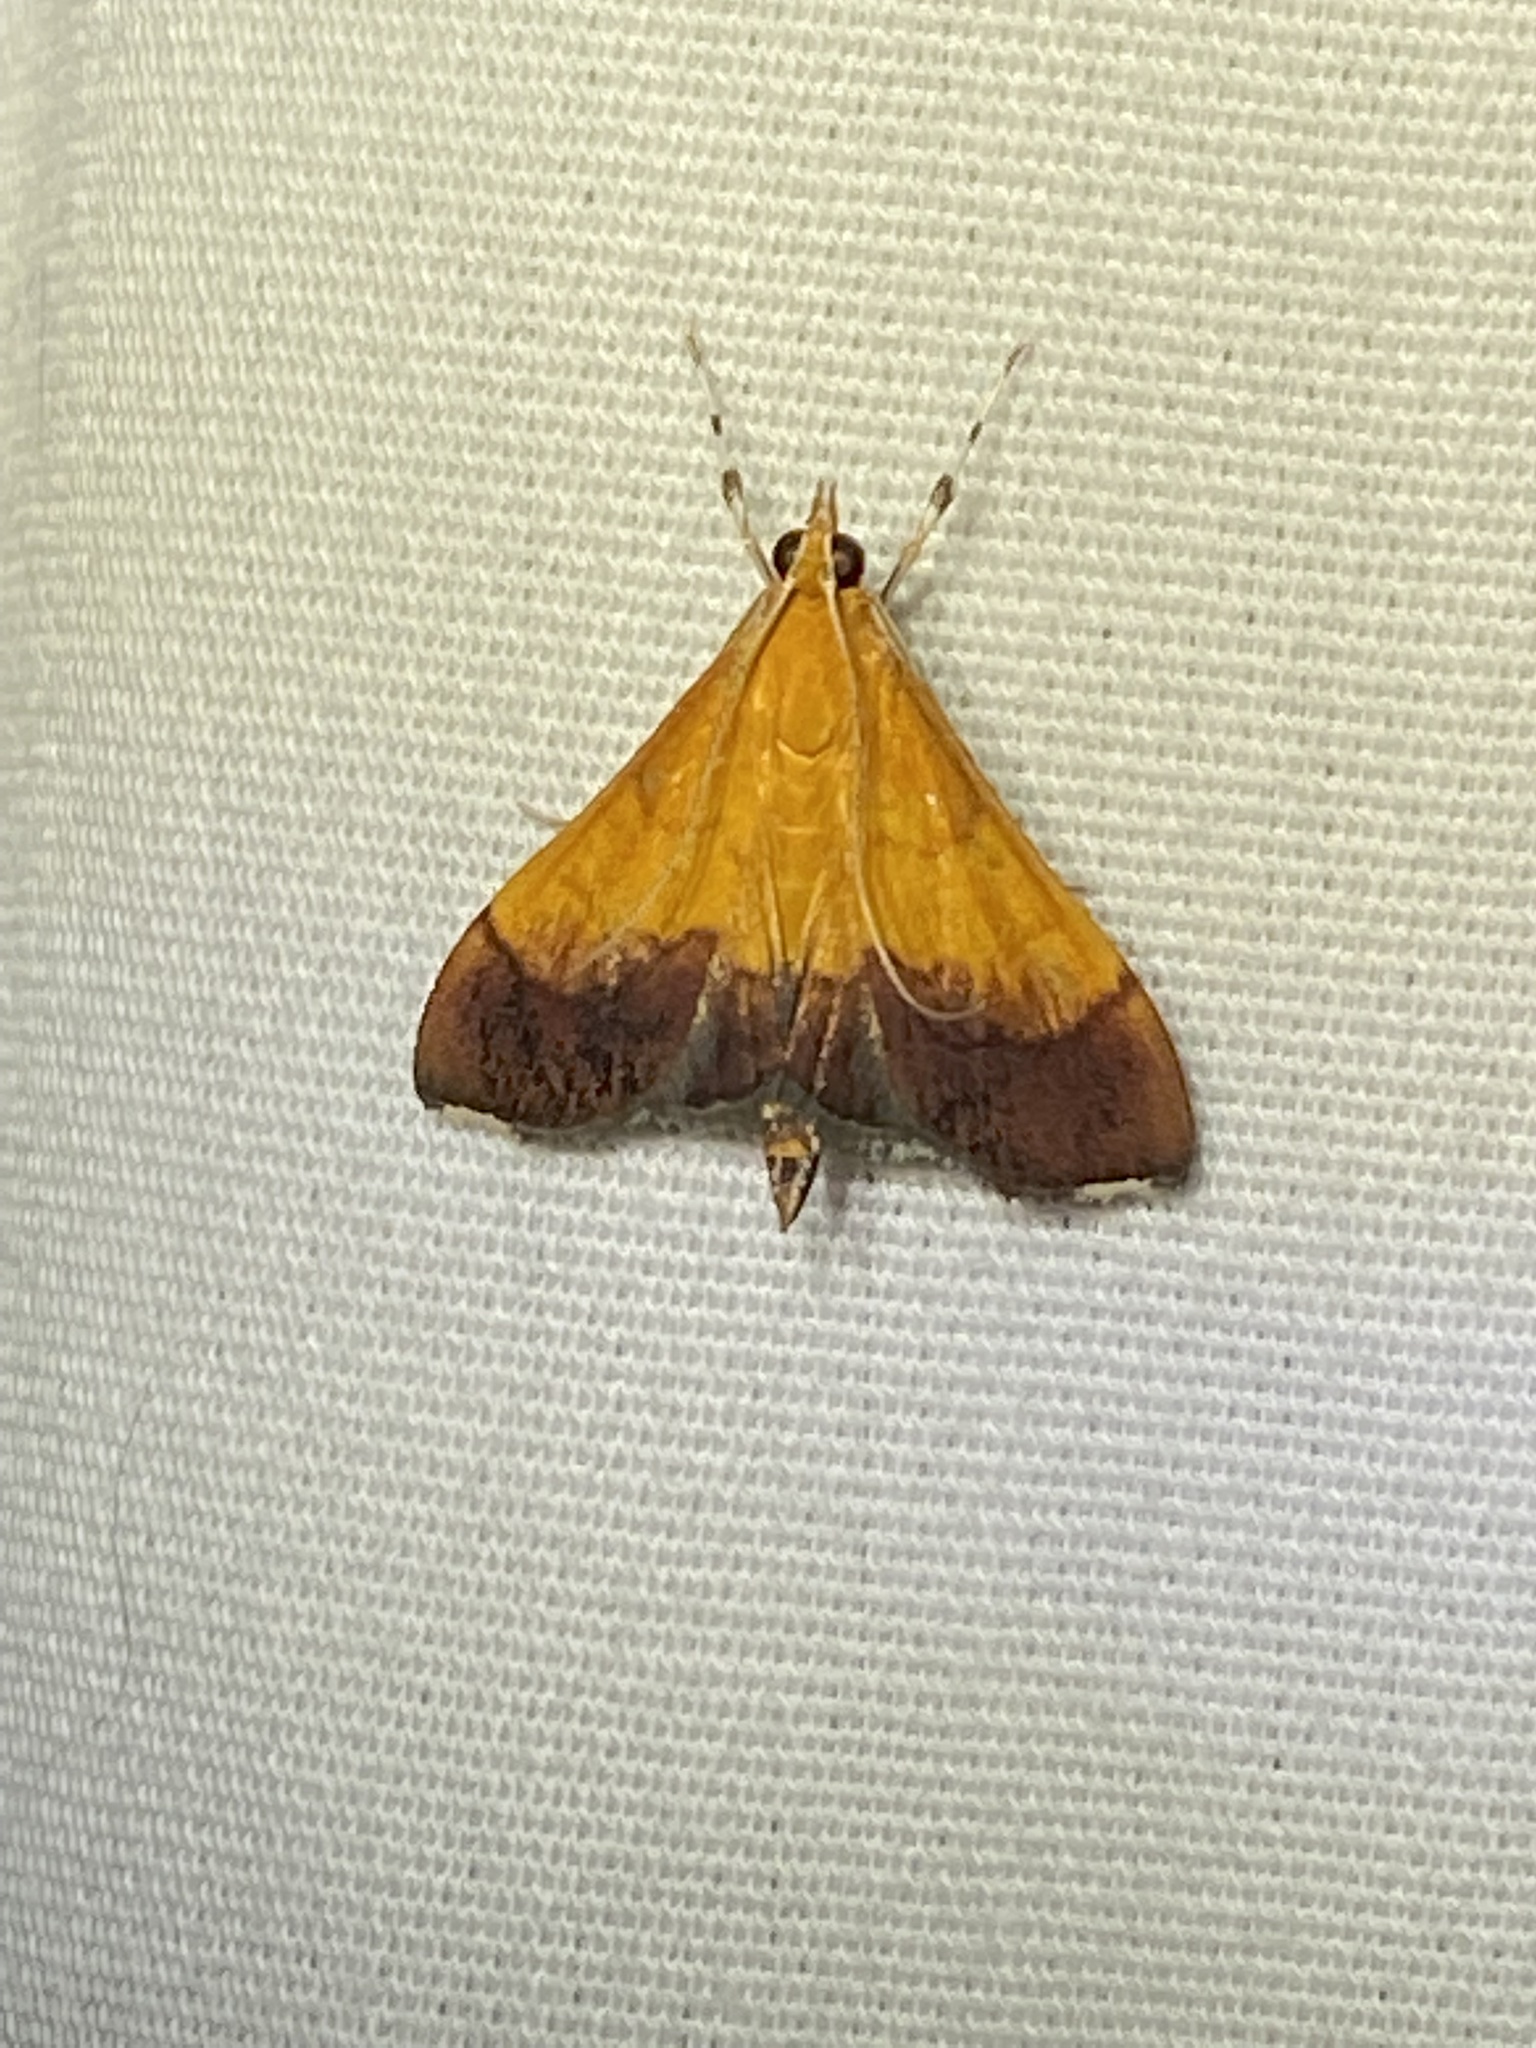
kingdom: Animalia
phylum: Arthropoda
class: Insecta
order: Lepidoptera
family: Crambidae
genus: Pyrausta
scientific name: Pyrausta bicoloralis
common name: Bicolored pyrausta moth
